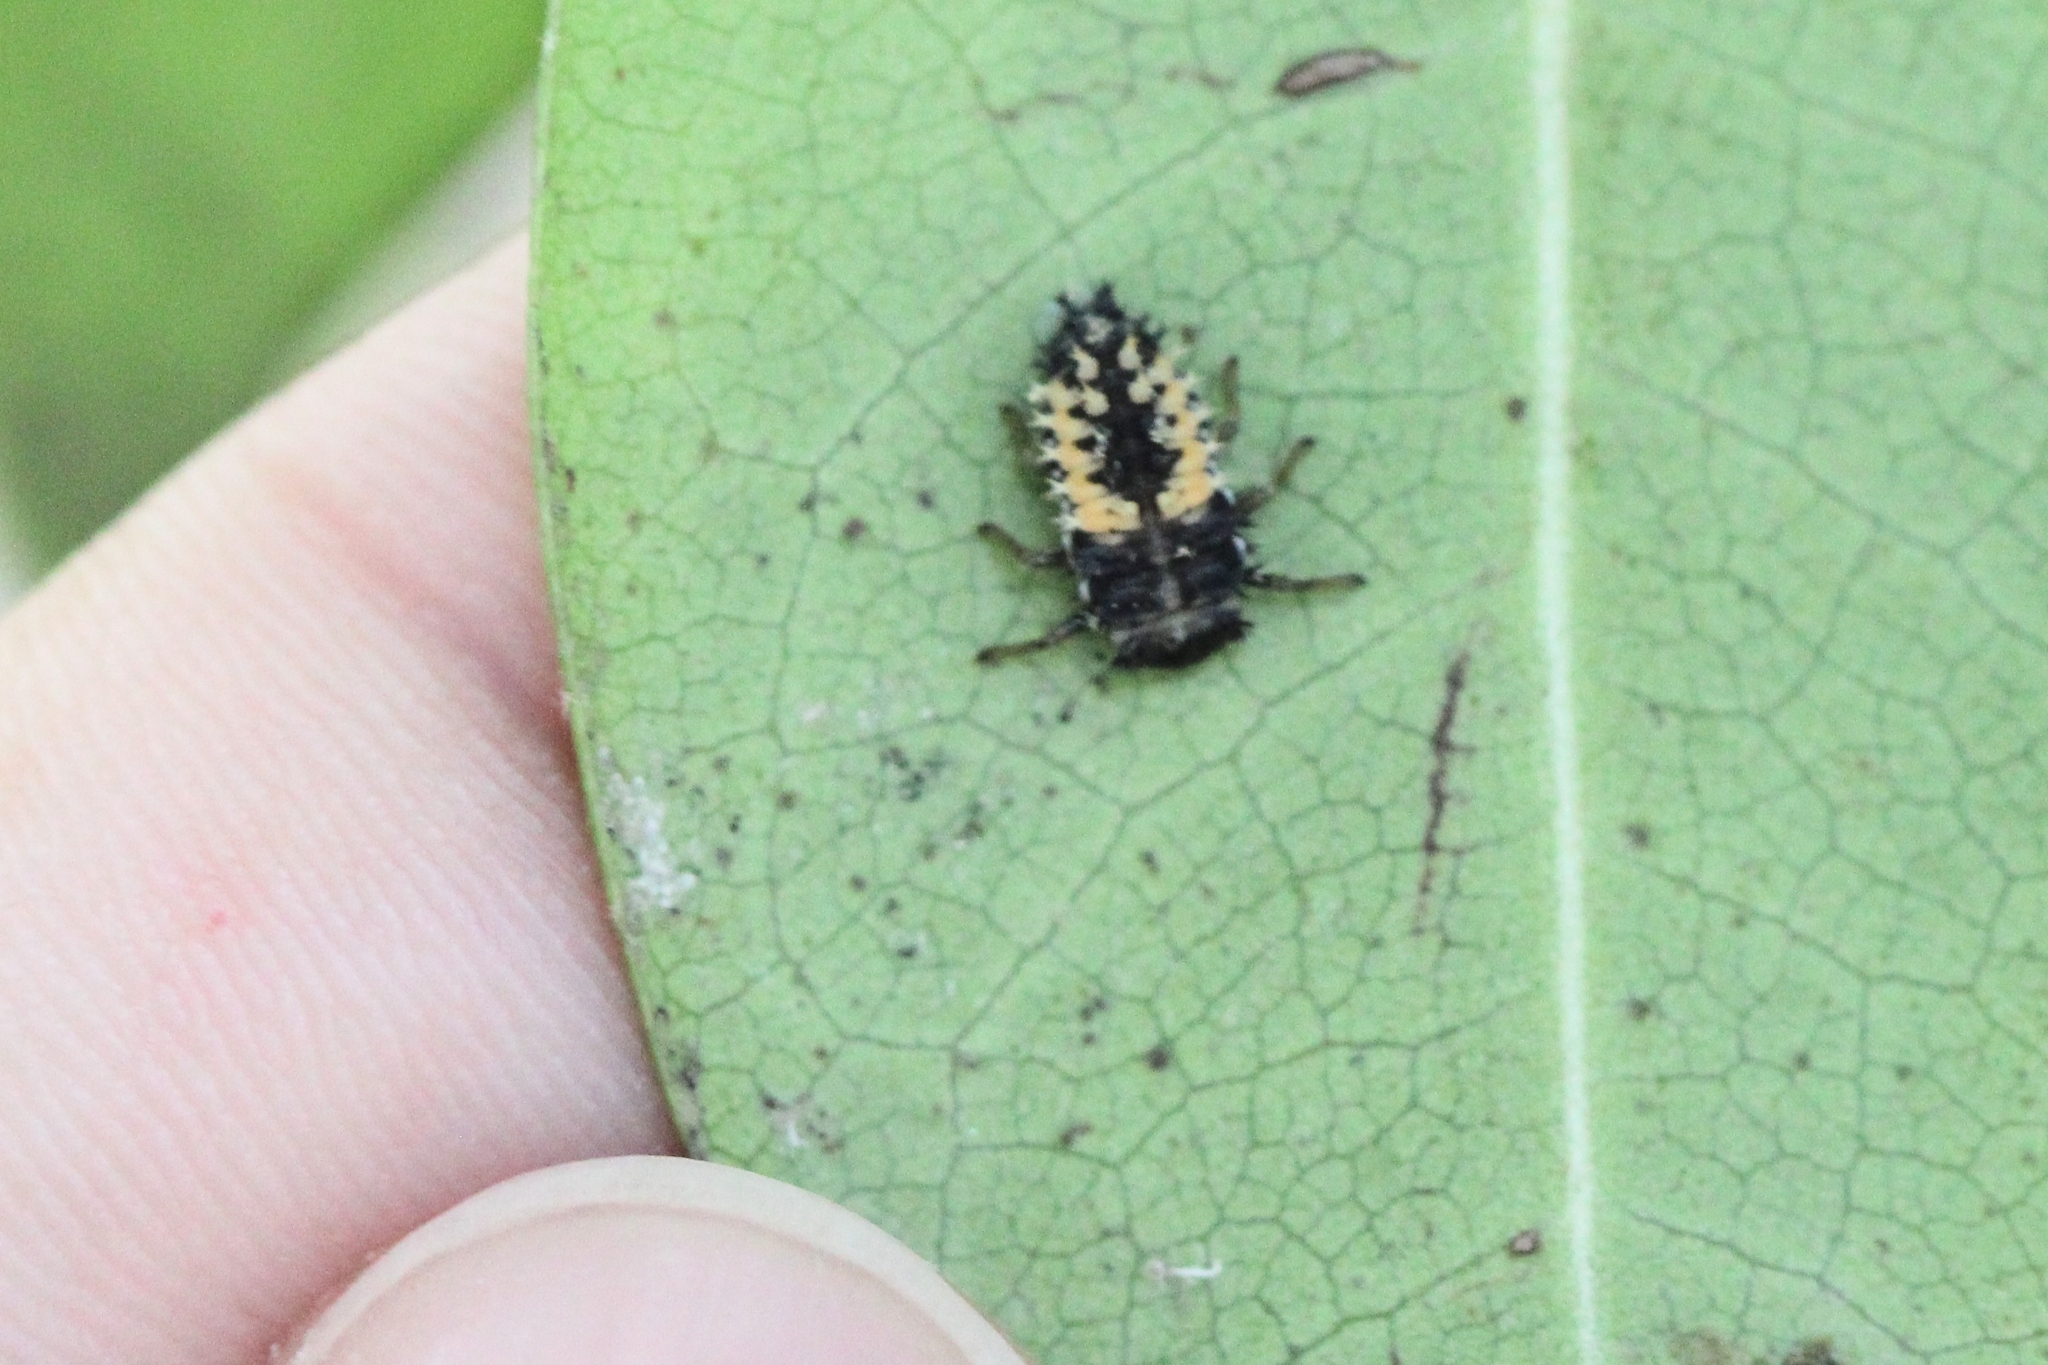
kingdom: Animalia
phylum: Arthropoda
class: Insecta
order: Coleoptera
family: Coccinellidae
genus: Harmonia
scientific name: Harmonia axyridis
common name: Harlequin ladybird
